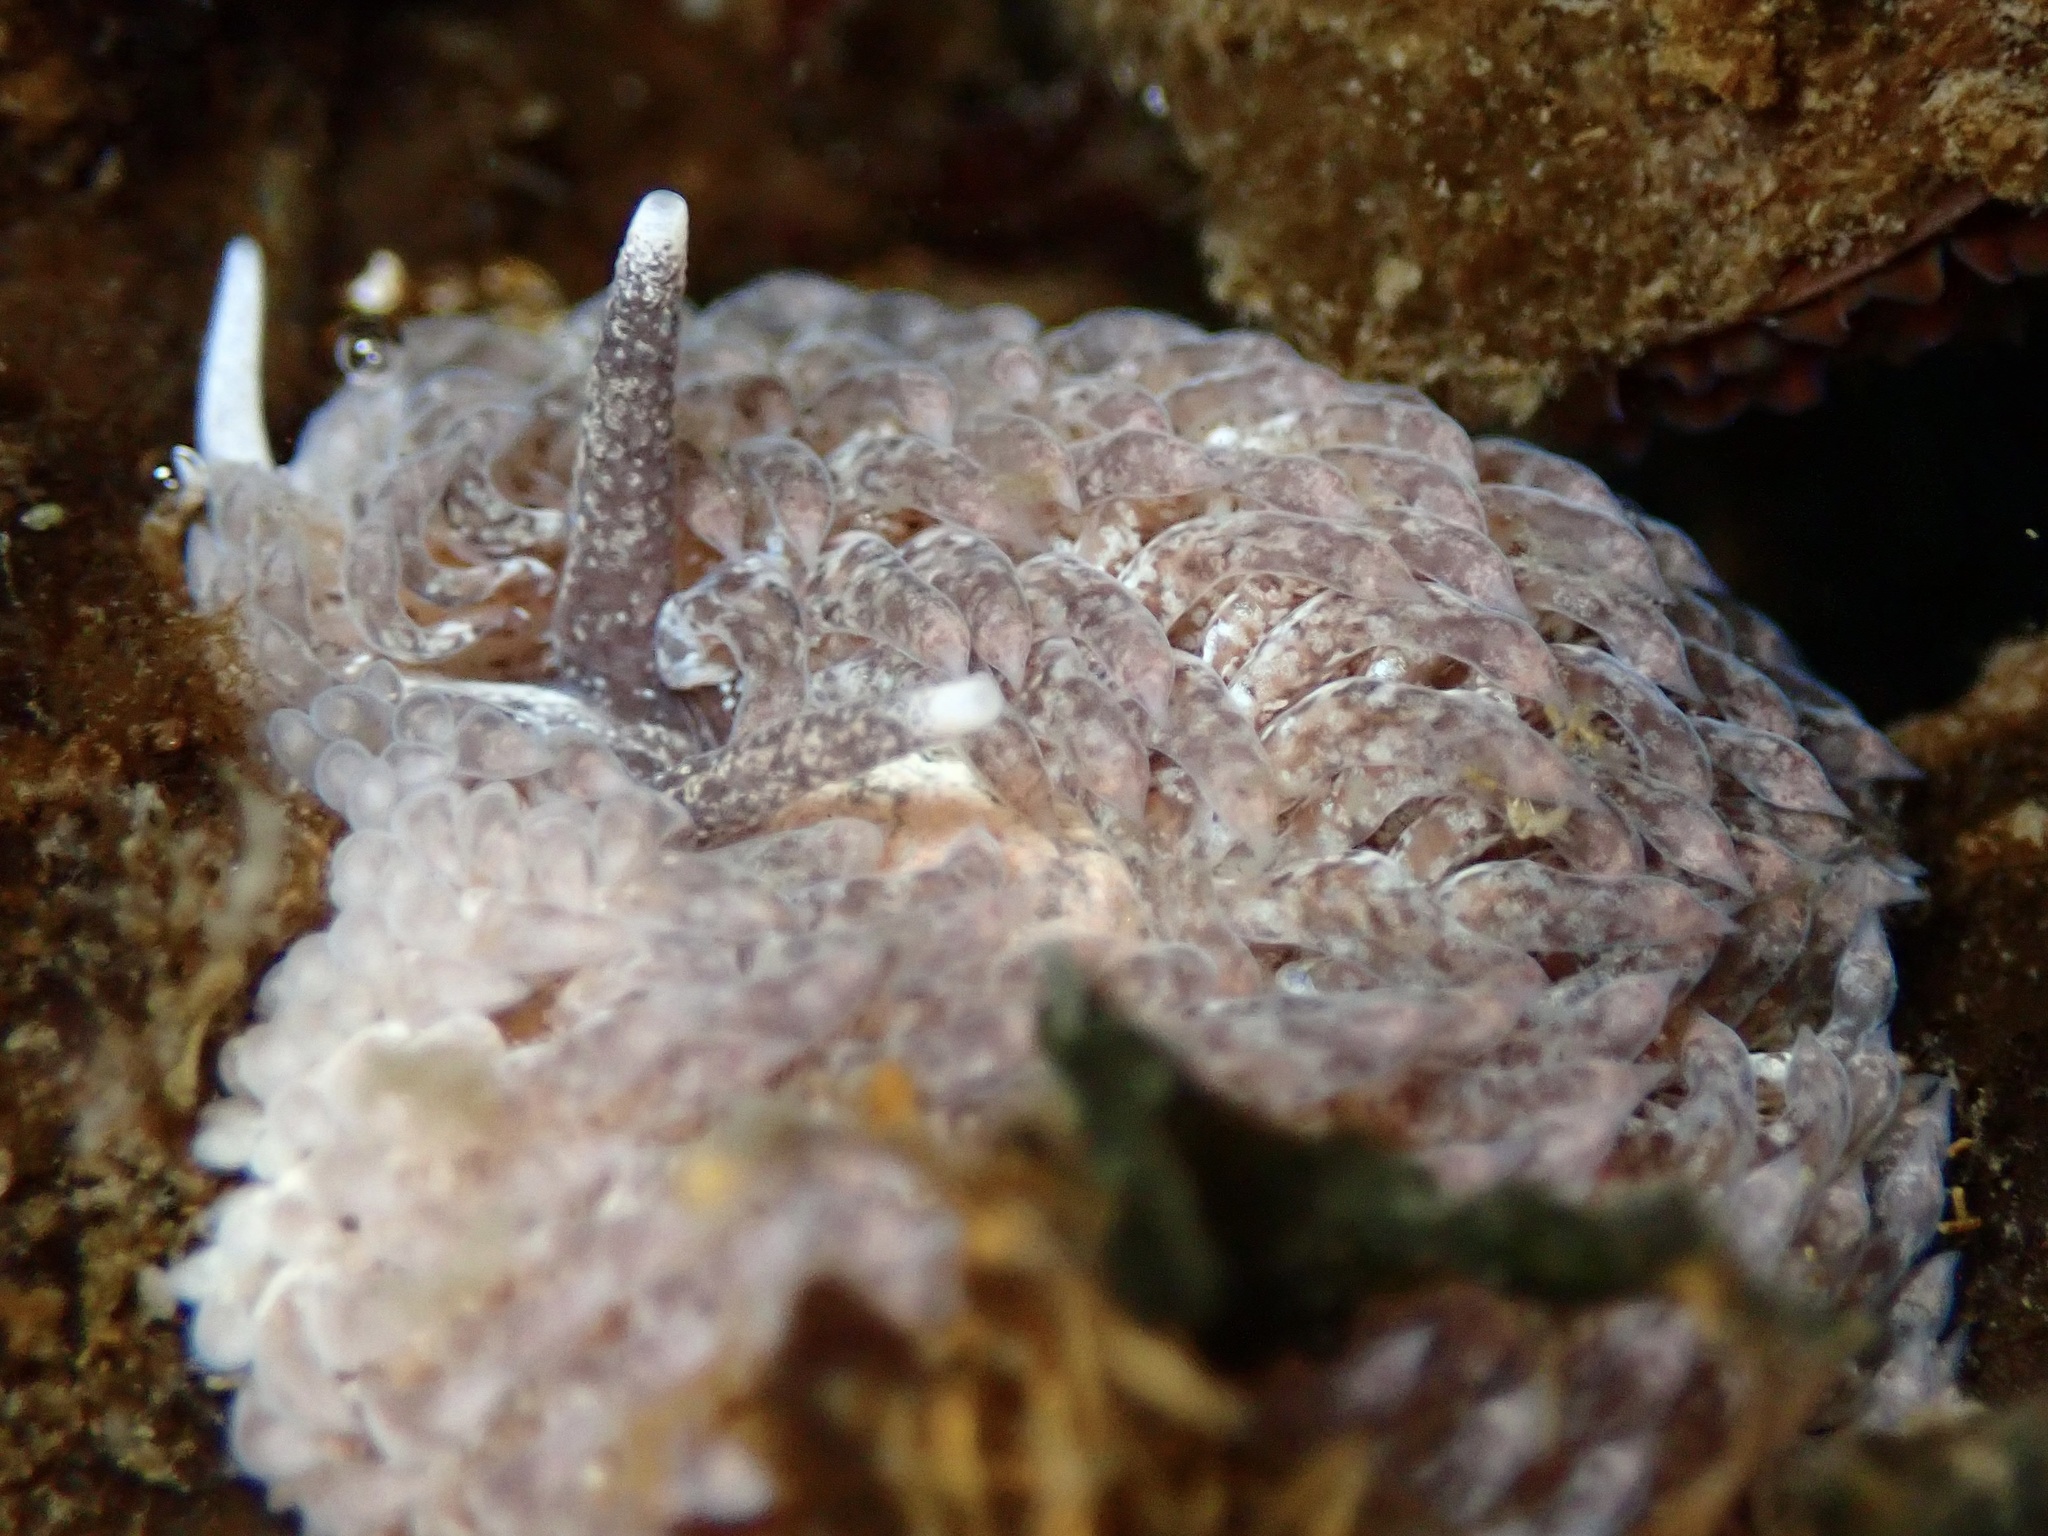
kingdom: Animalia
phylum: Mollusca
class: Gastropoda
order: Nudibranchia
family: Aeolidiidae
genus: Aeolidia
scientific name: Aeolidia papillosa
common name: Common grey sea slug
